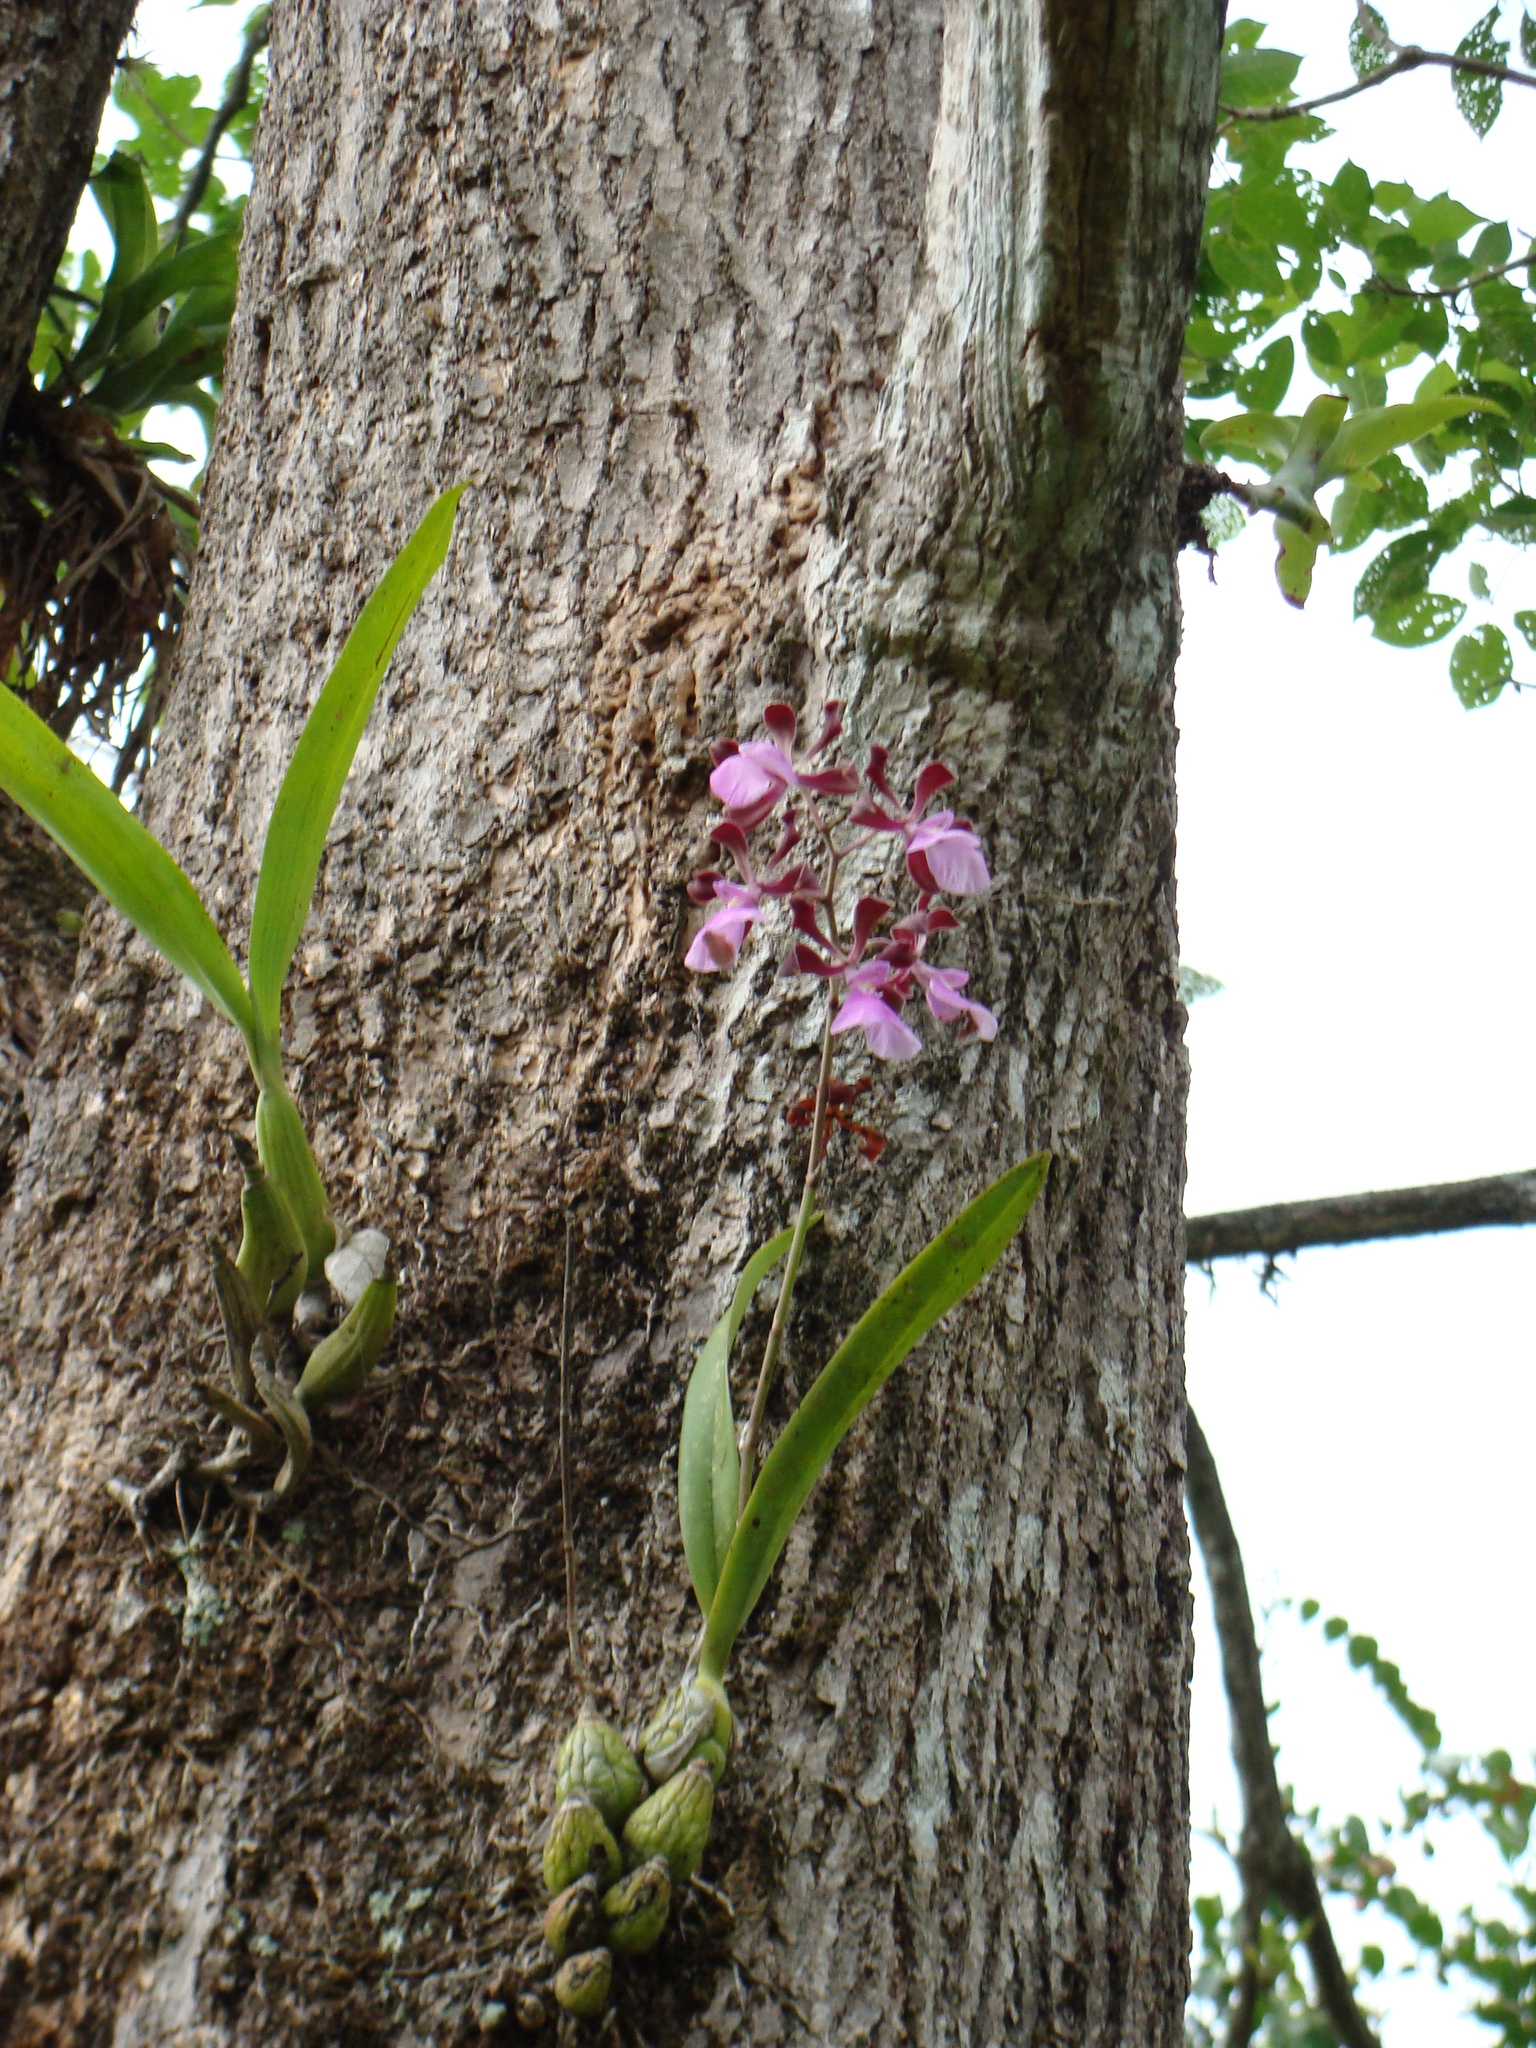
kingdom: Plantae
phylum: Tracheophyta
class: Liliopsida
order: Asparagales
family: Orchidaceae
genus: Encyclia
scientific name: Encyclia cordigera
